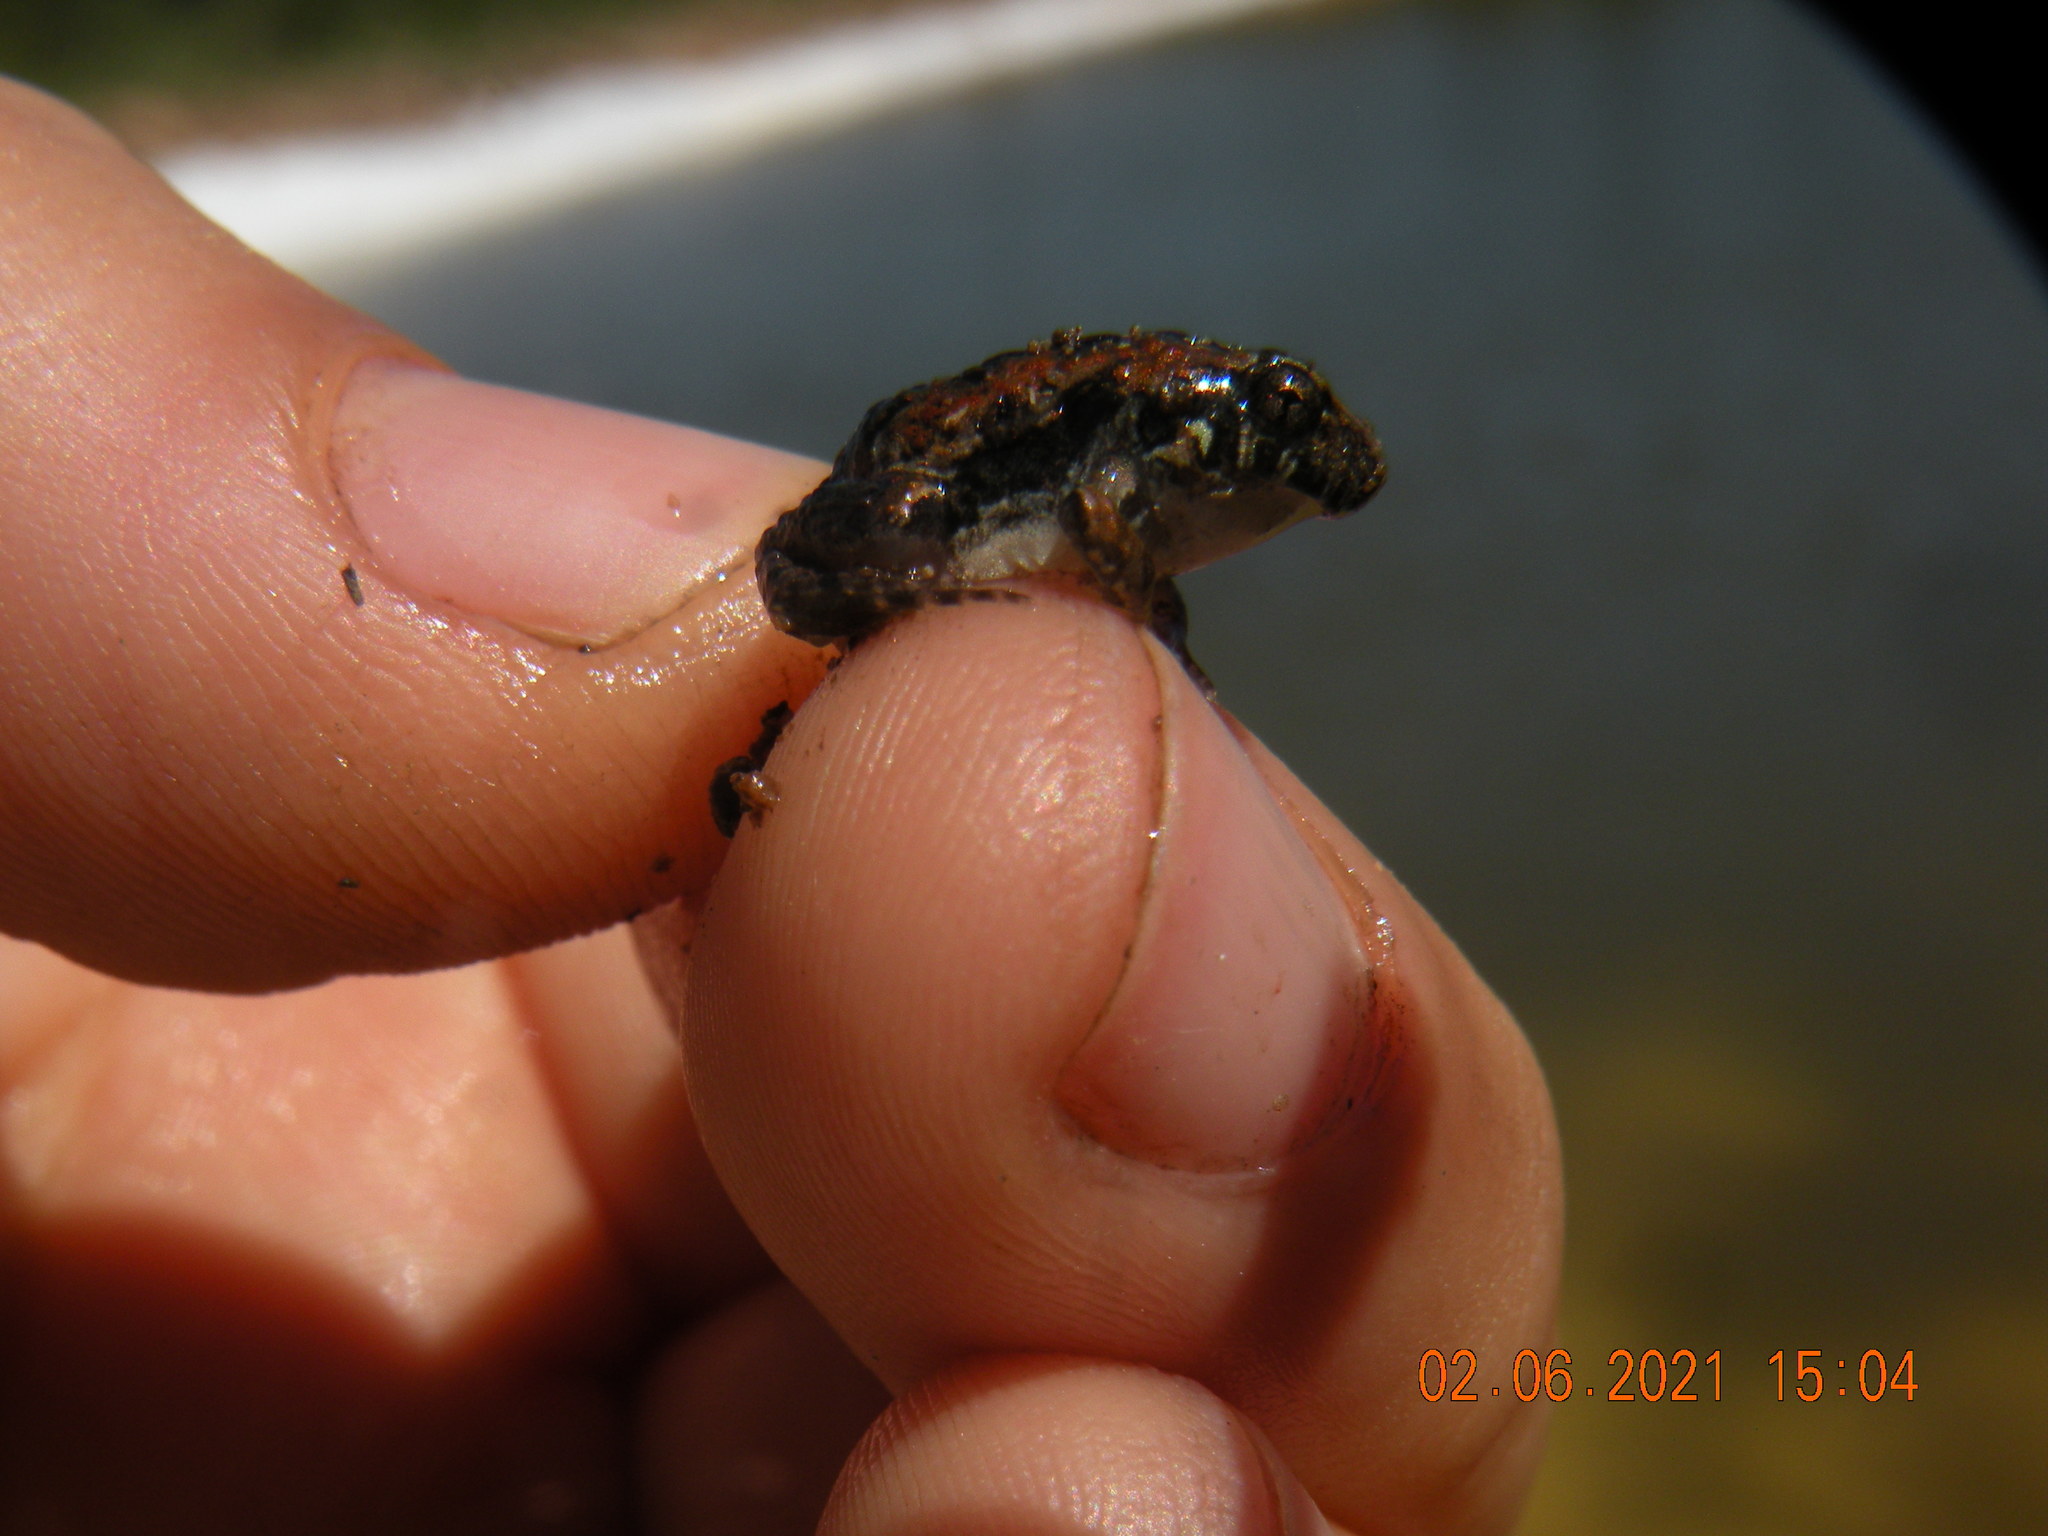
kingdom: Animalia
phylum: Chordata
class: Amphibia
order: Anura
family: Leptodactylidae
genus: Physalaemus
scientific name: Physalaemus biligonigerus
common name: Weeping frog
